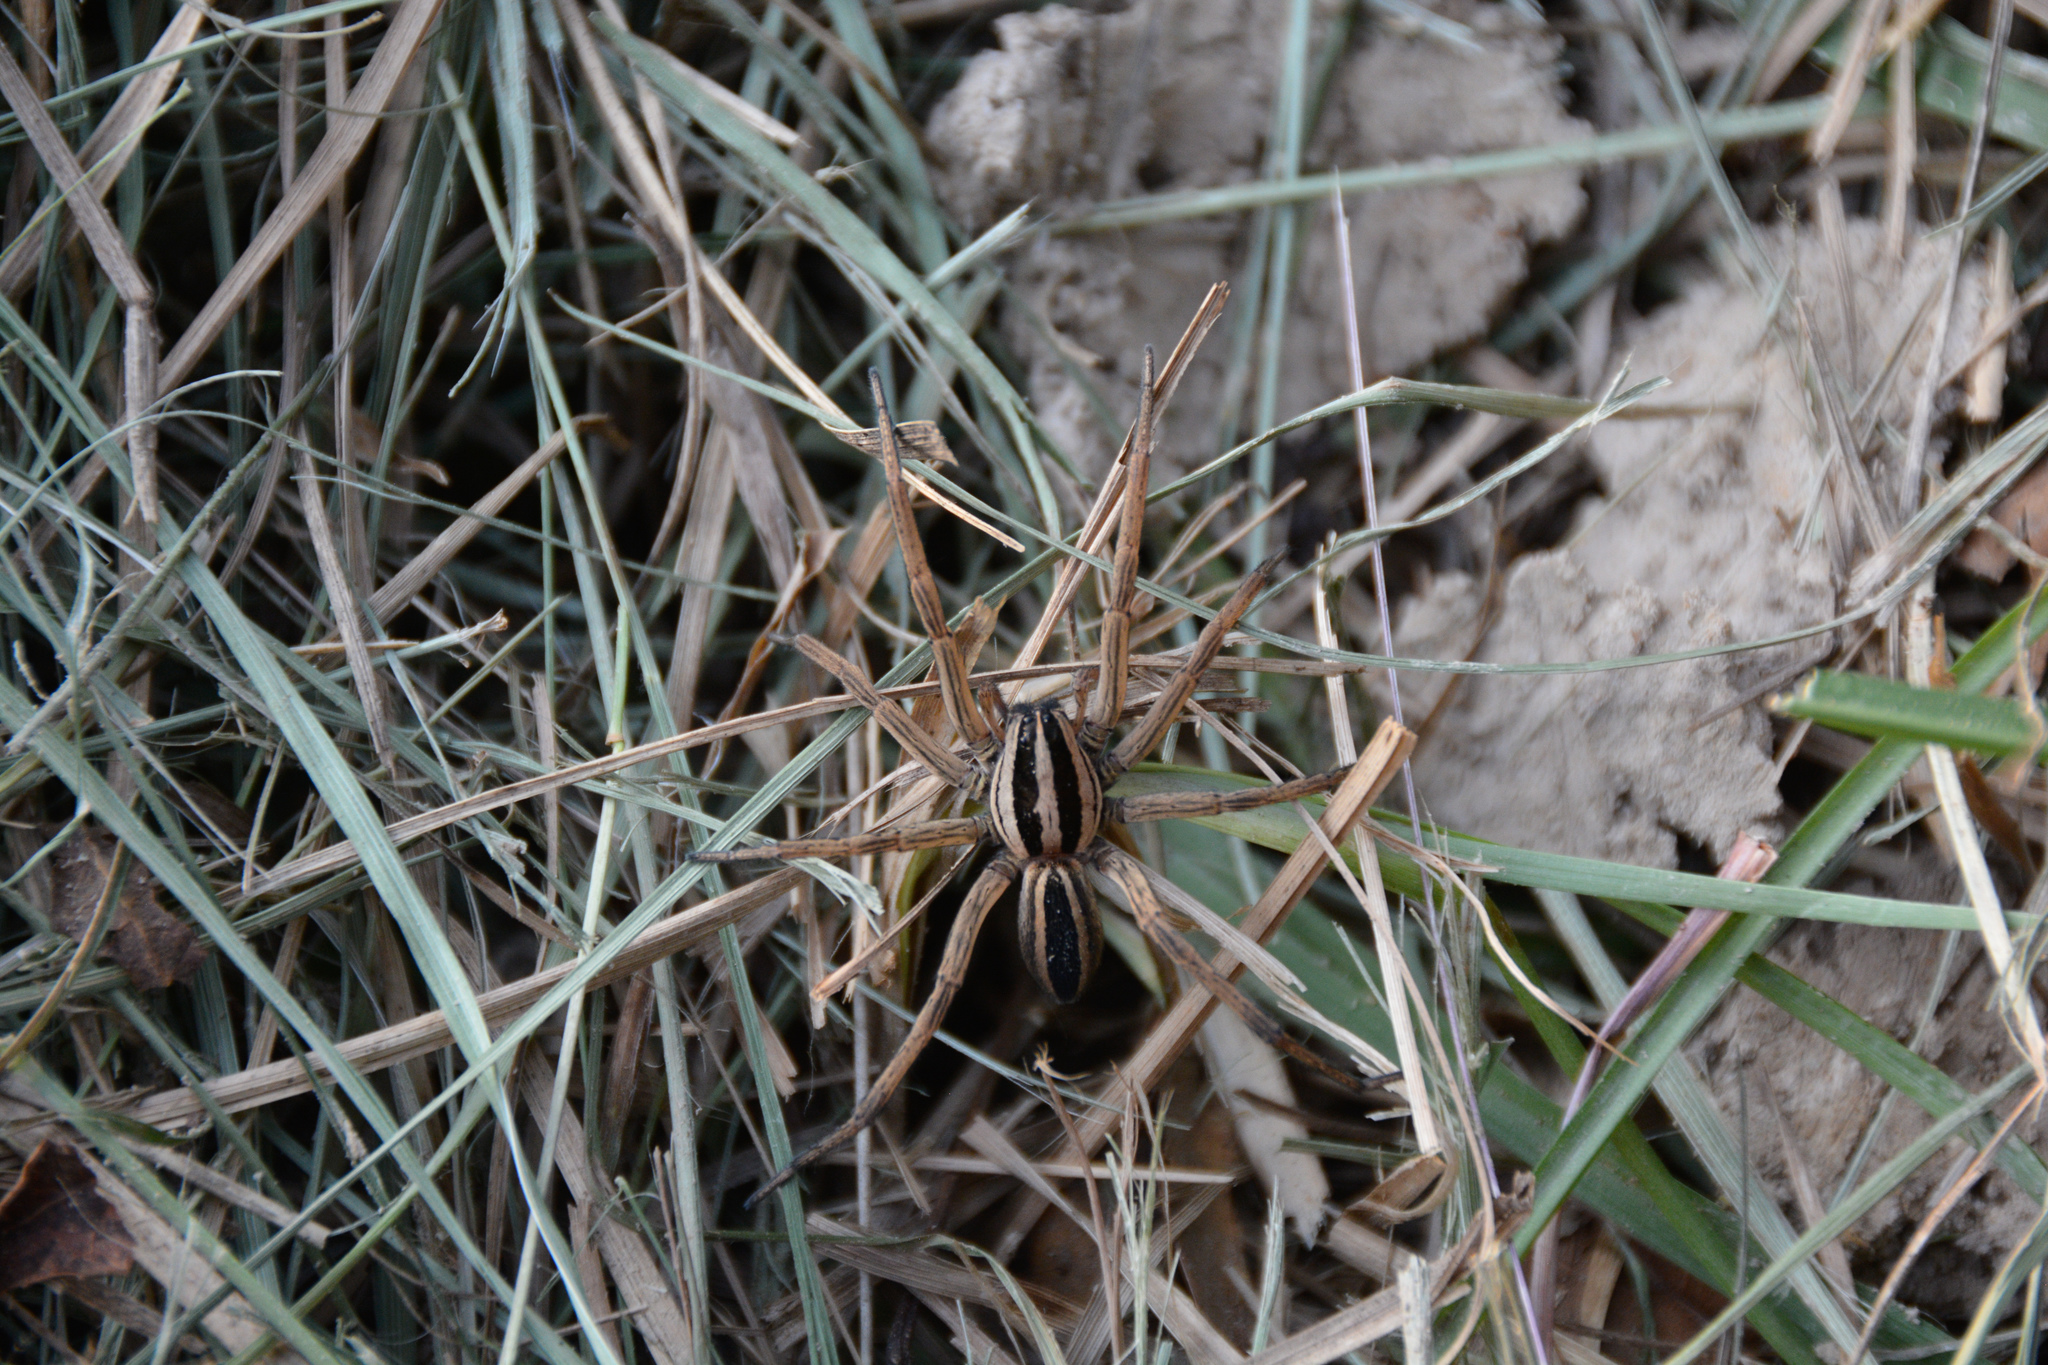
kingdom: Animalia
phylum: Arthropoda
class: Arachnida
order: Araneae
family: Lycosidae
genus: Rabidosa
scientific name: Rabidosa punctulata
